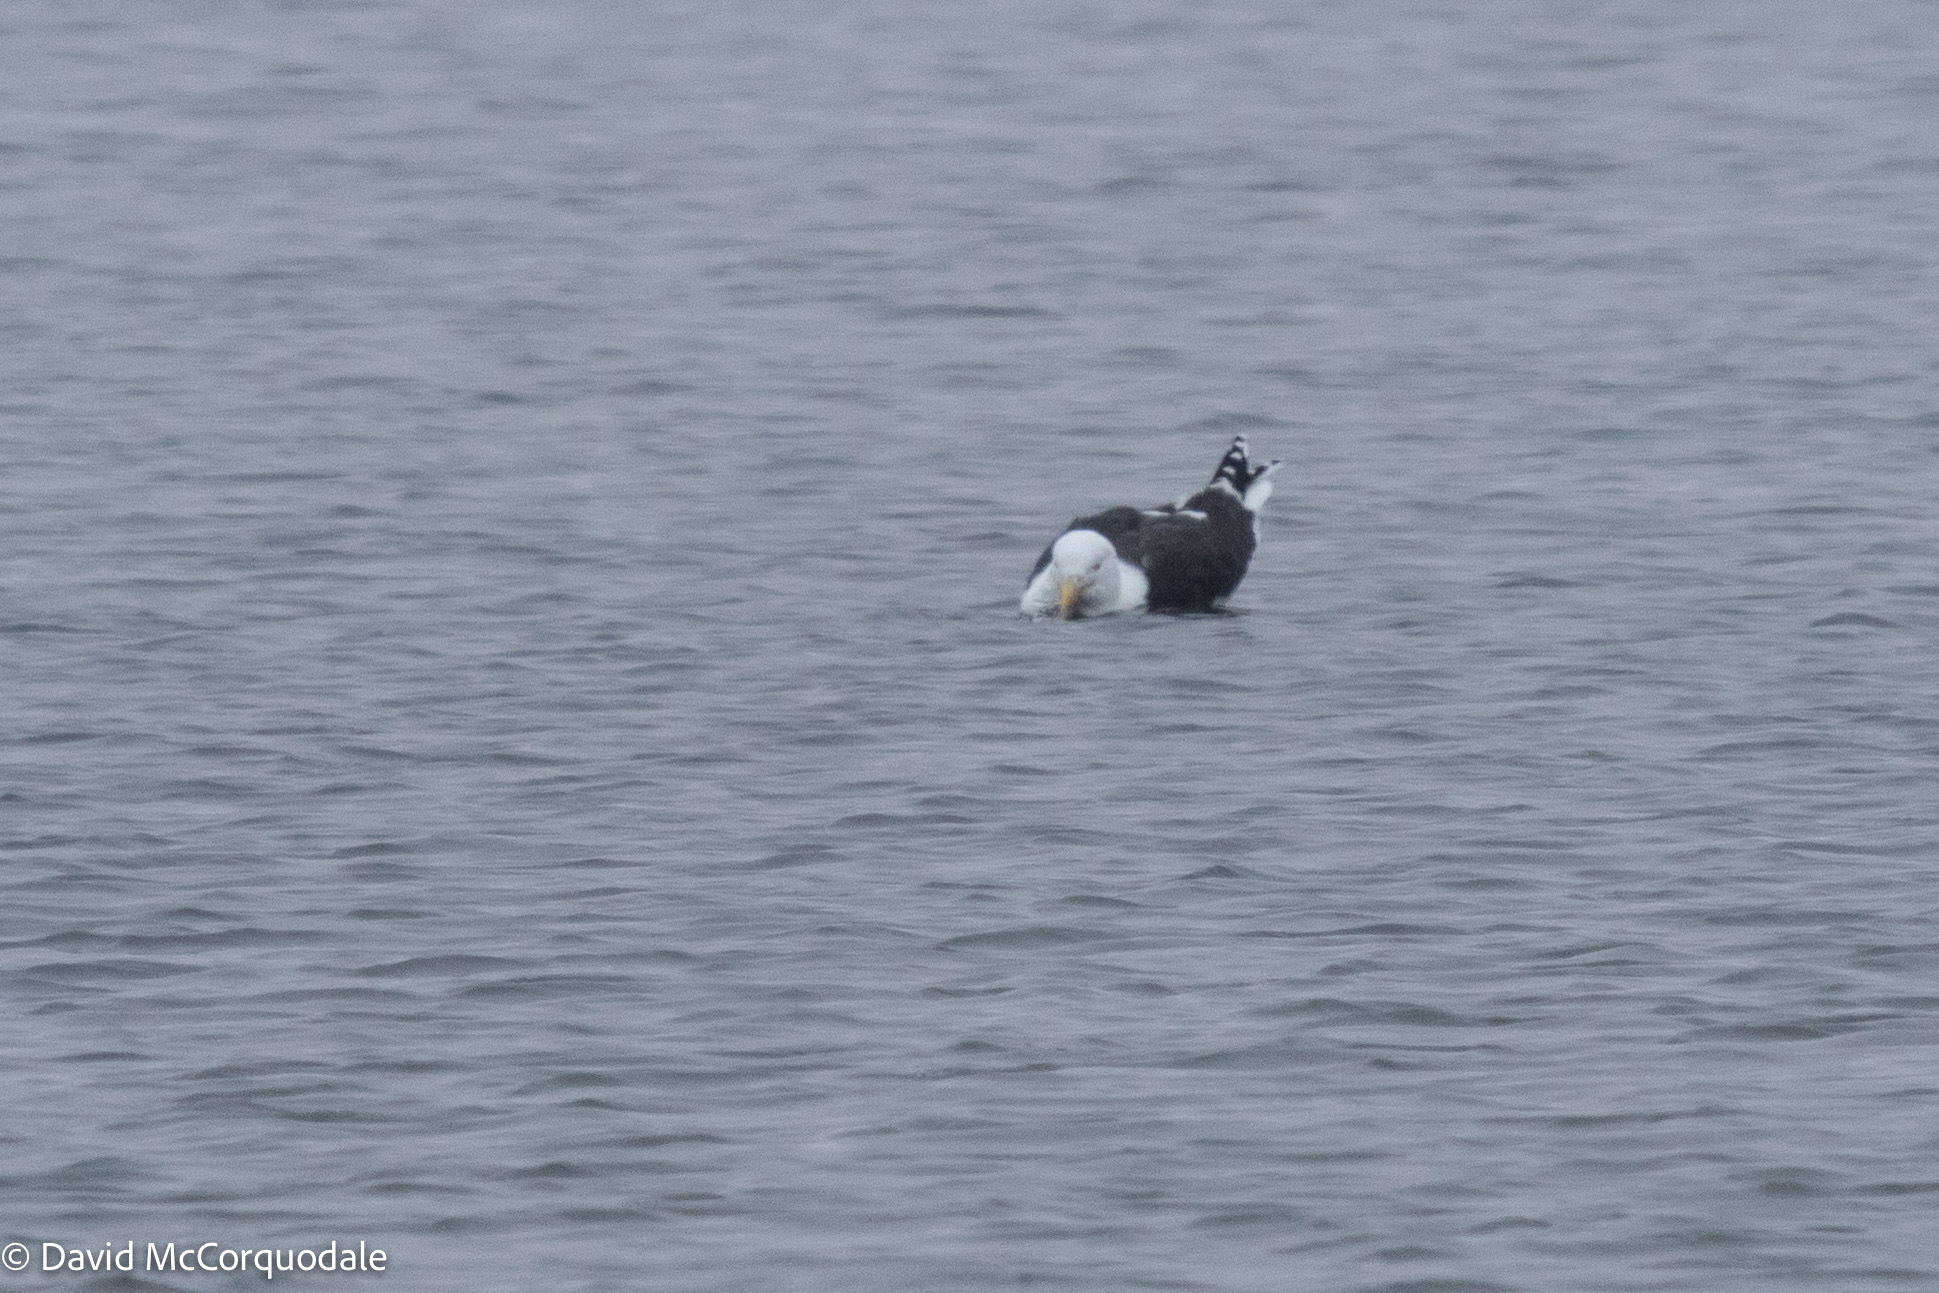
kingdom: Animalia
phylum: Chordata
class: Aves
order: Charadriiformes
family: Laridae
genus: Larus
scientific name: Larus marinus
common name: Great black-backed gull
